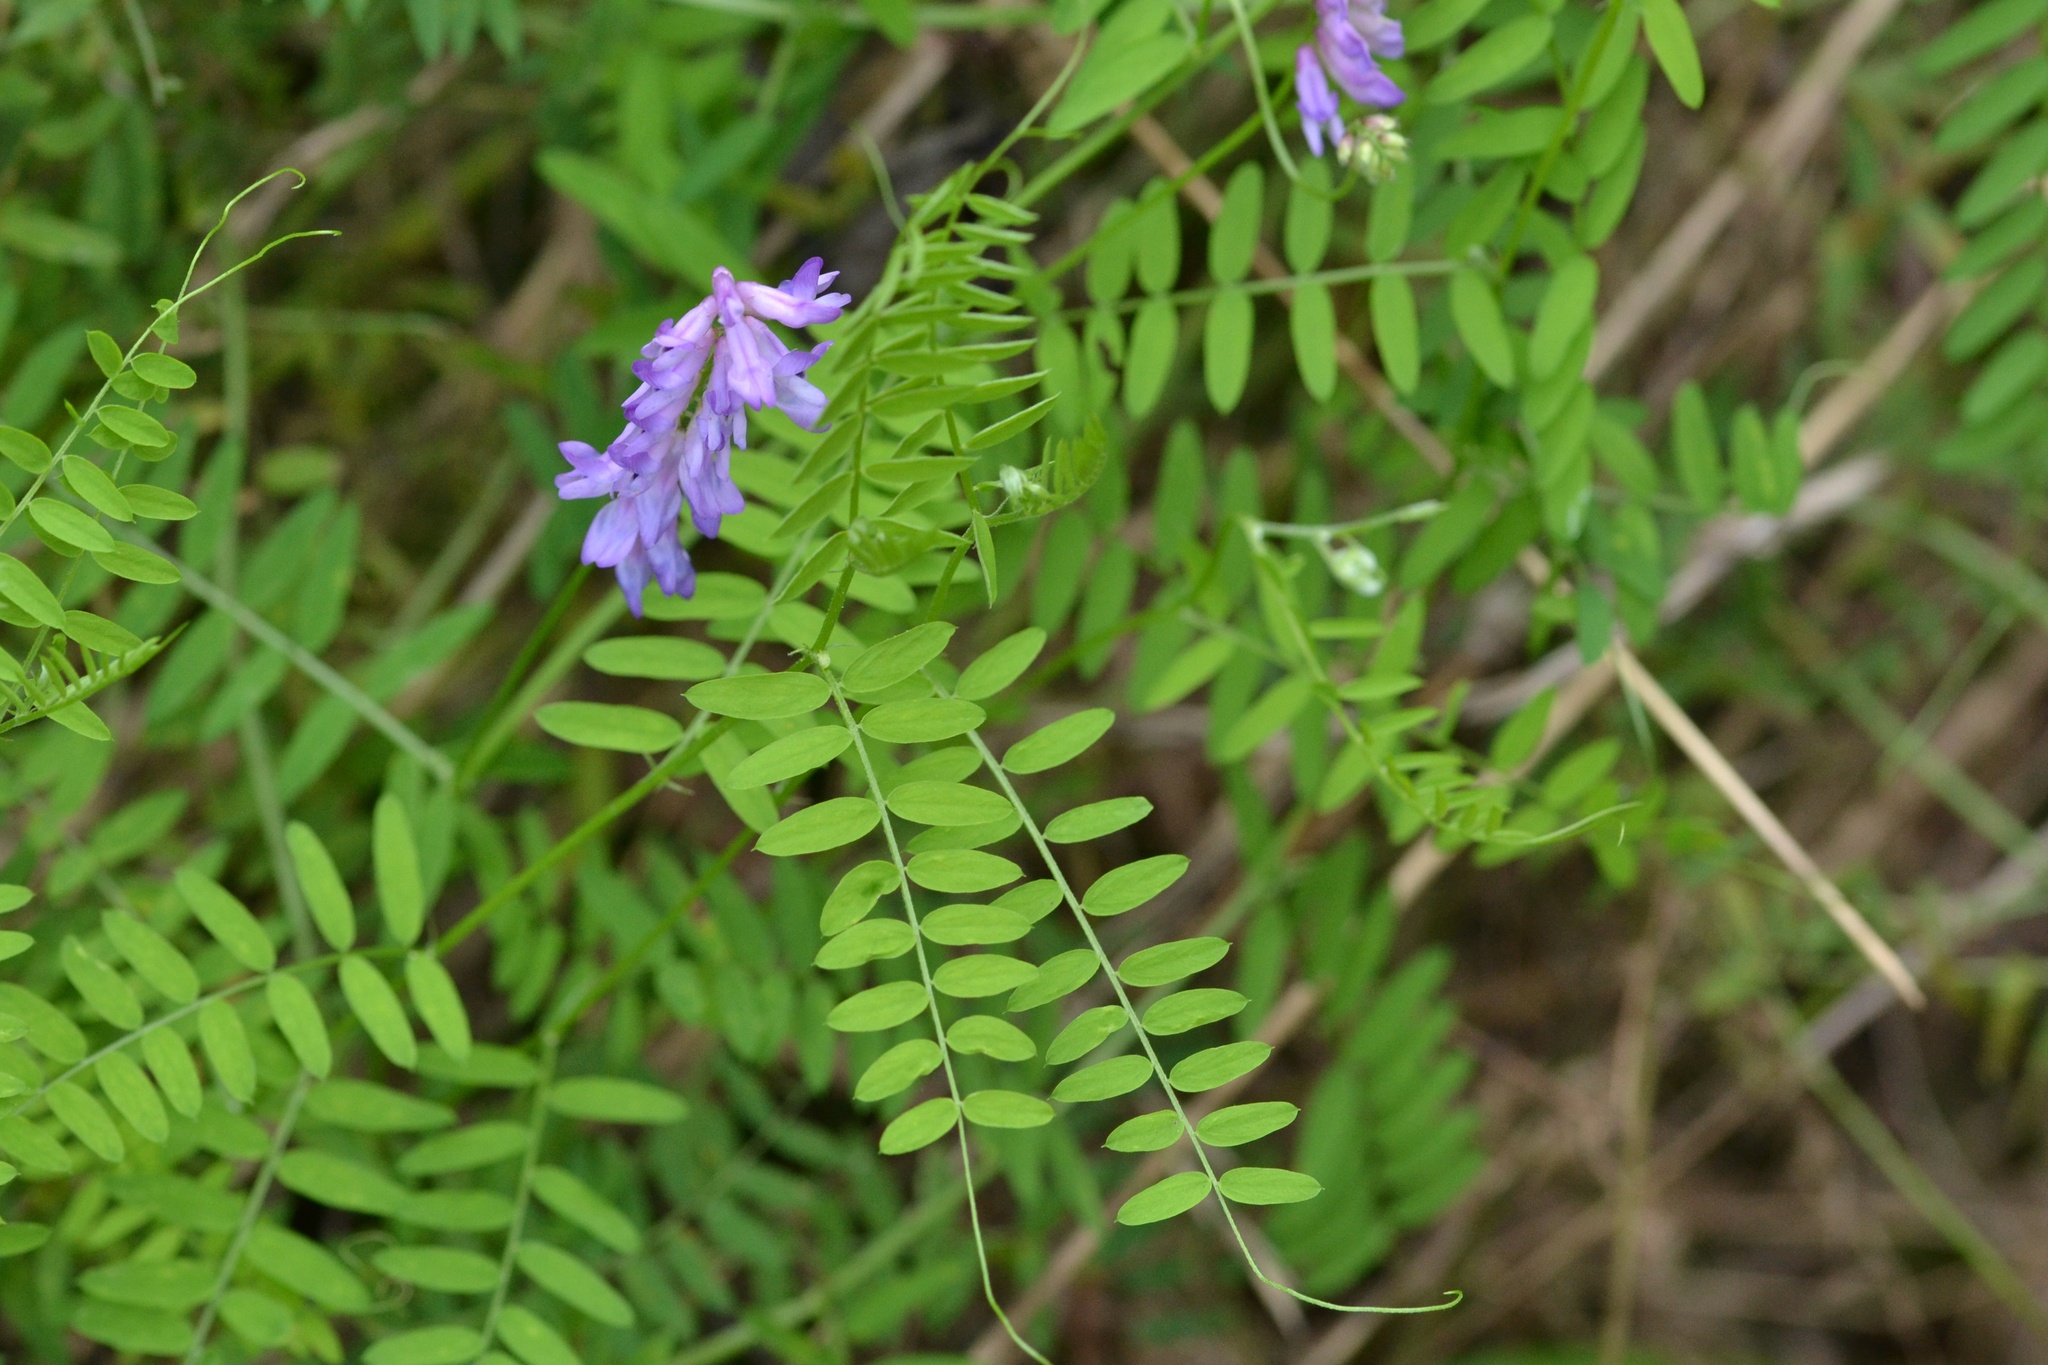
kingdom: Plantae
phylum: Tracheophyta
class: Magnoliopsida
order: Fabales
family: Fabaceae
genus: Vicia
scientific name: Vicia cracca
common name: Bird vetch
